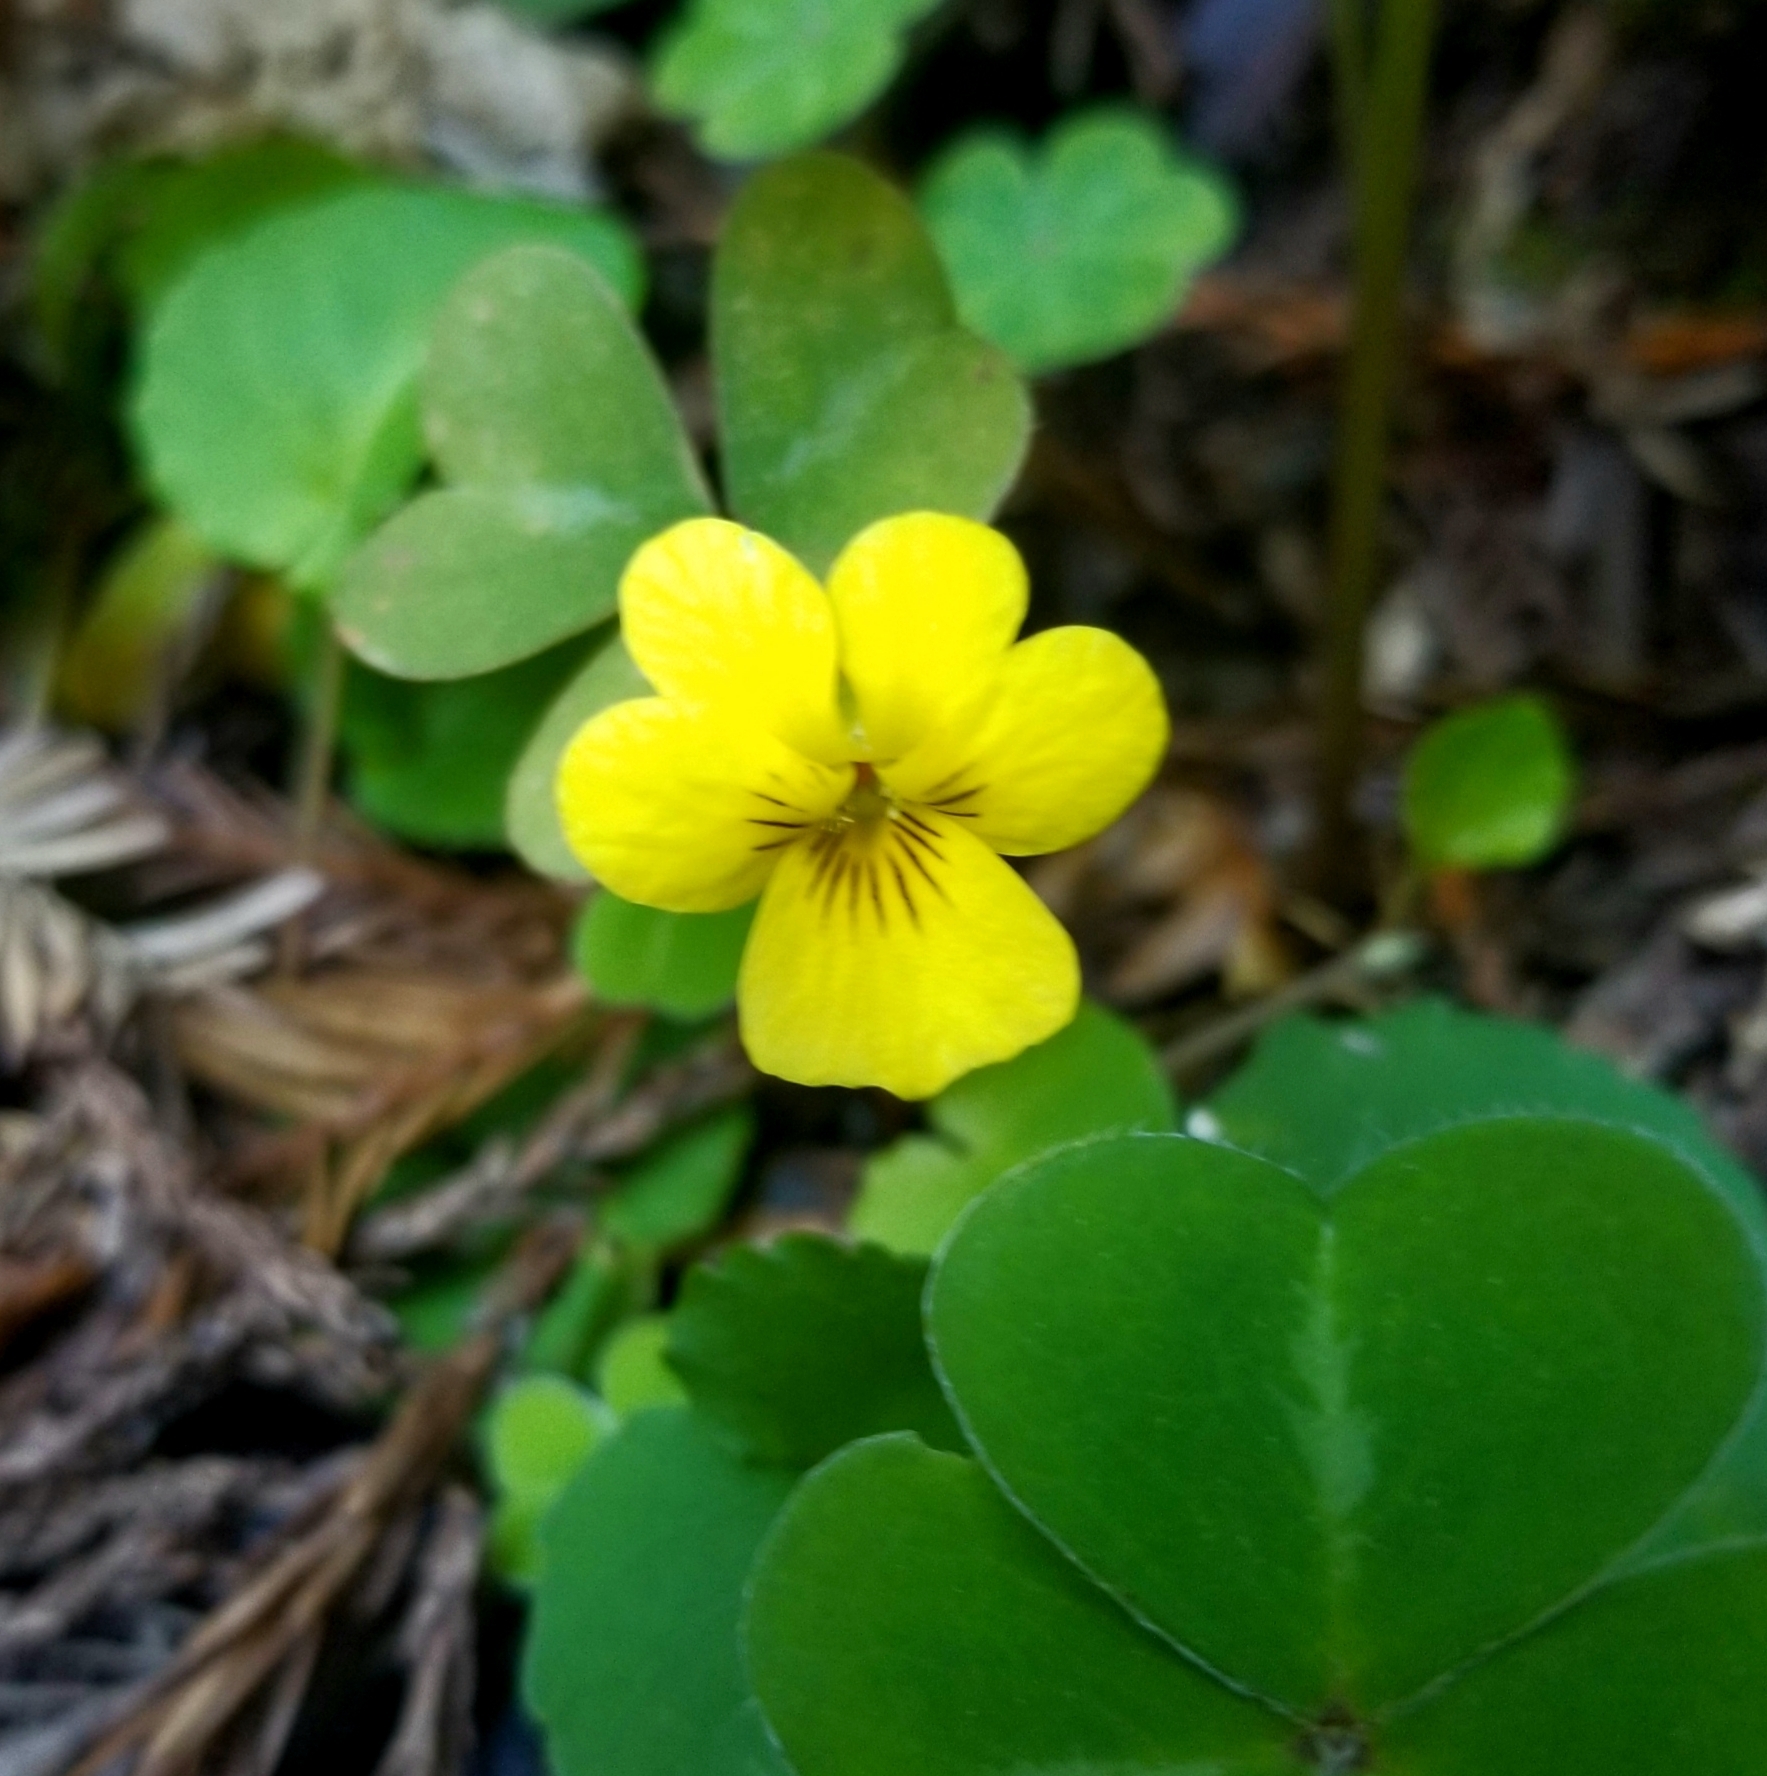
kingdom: Plantae
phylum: Tracheophyta
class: Magnoliopsida
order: Malpighiales
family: Violaceae
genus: Viola
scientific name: Viola sempervirens
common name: Evergreen violet
